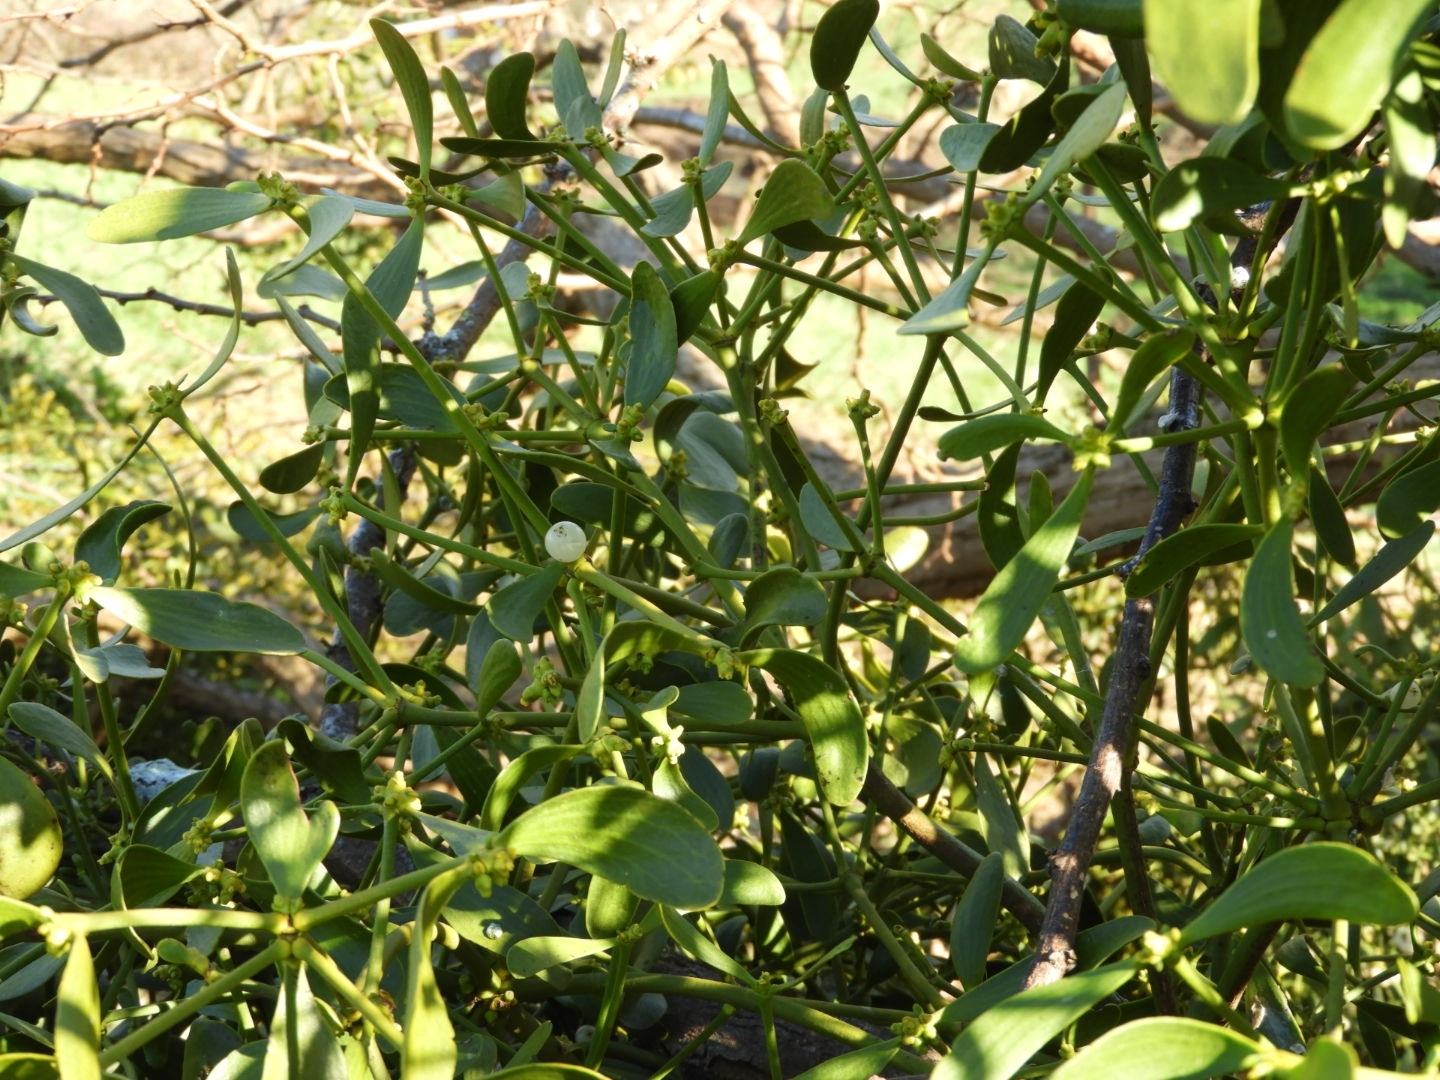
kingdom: Plantae
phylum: Tracheophyta
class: Magnoliopsida
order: Santalales
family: Viscaceae
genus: Viscum
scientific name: Viscum album
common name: Mistletoe
